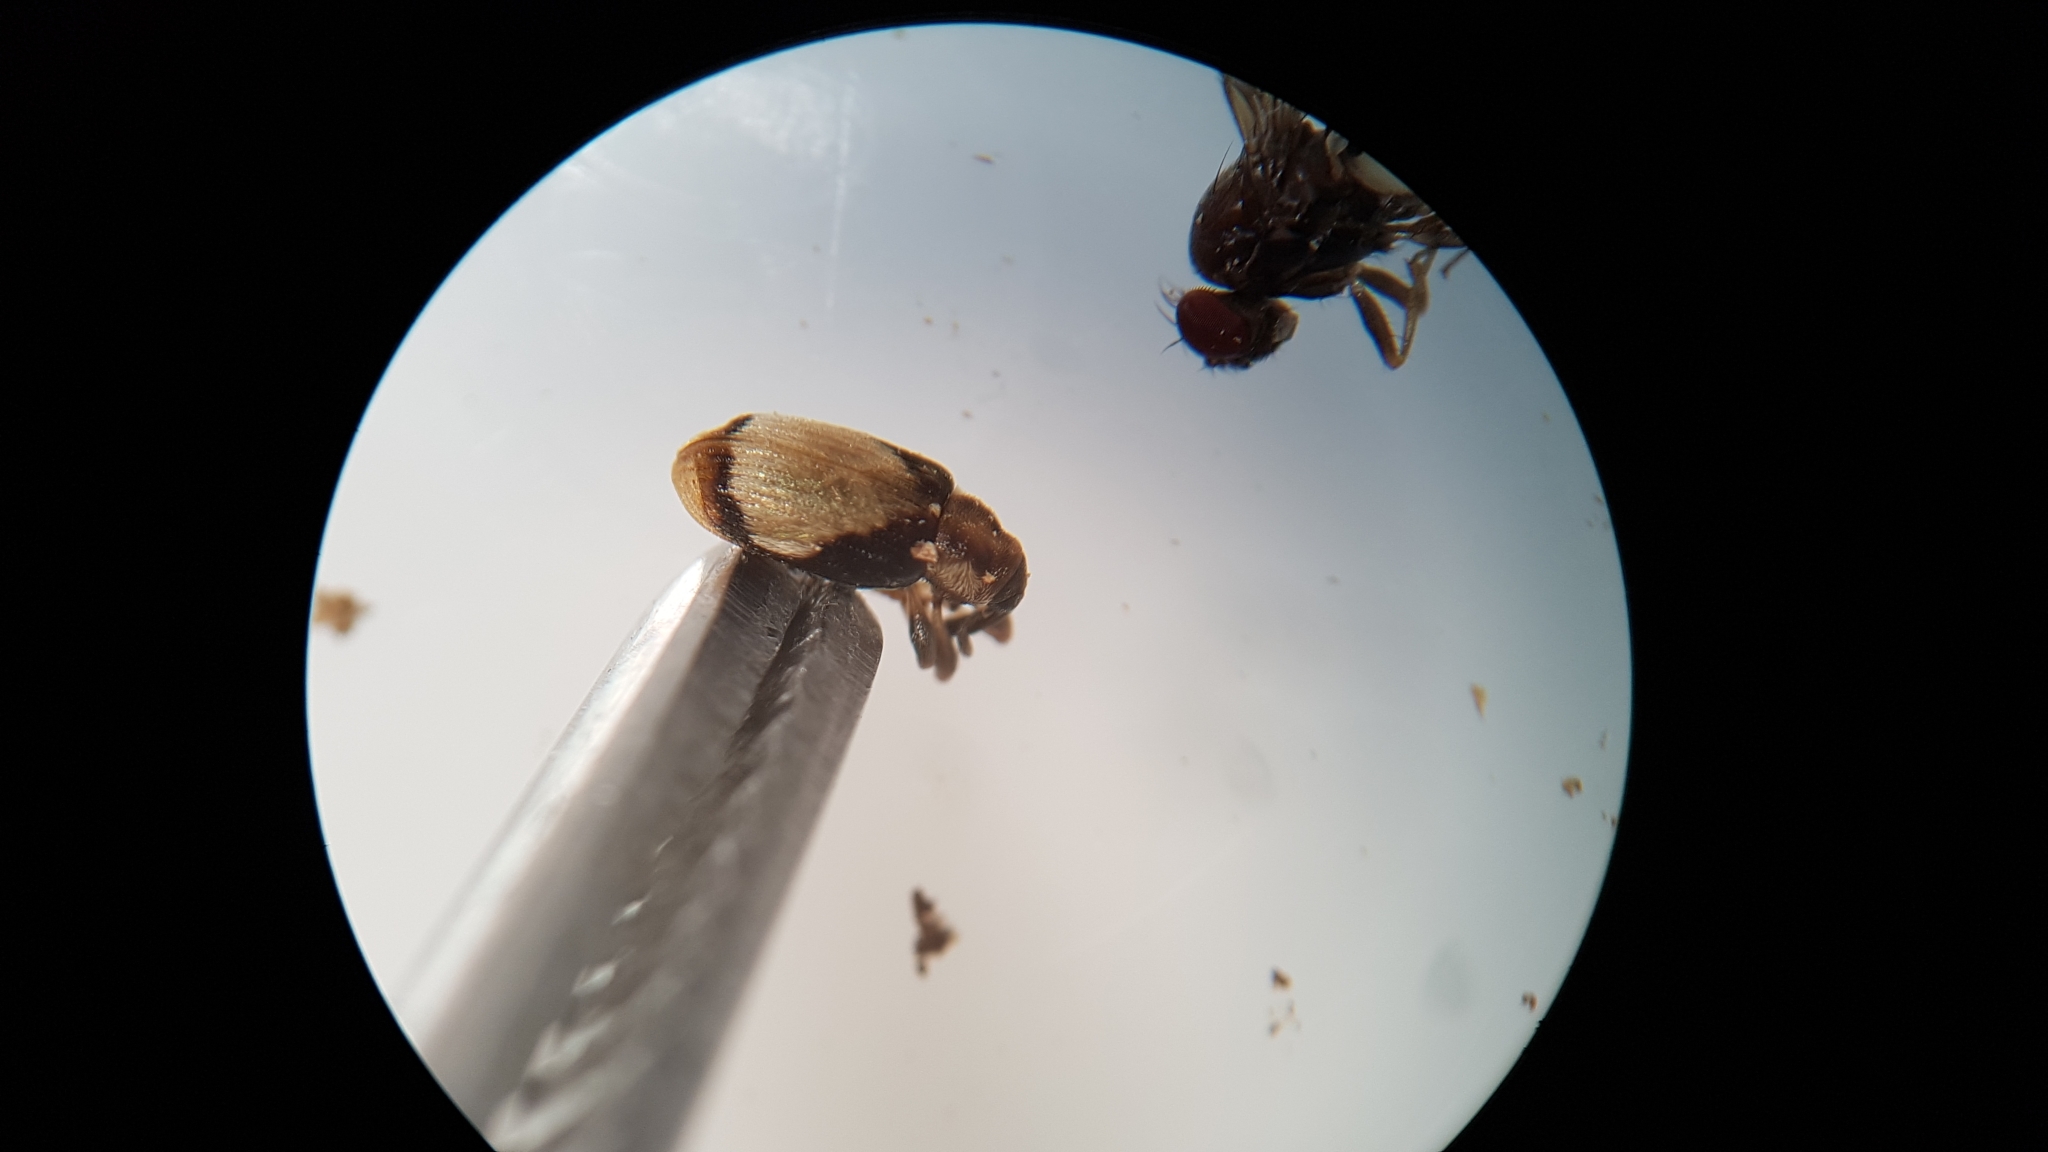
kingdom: Animalia
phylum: Arthropoda
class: Insecta
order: Coleoptera
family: Curculionidae
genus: Peristoreus
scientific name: Peristoreus
